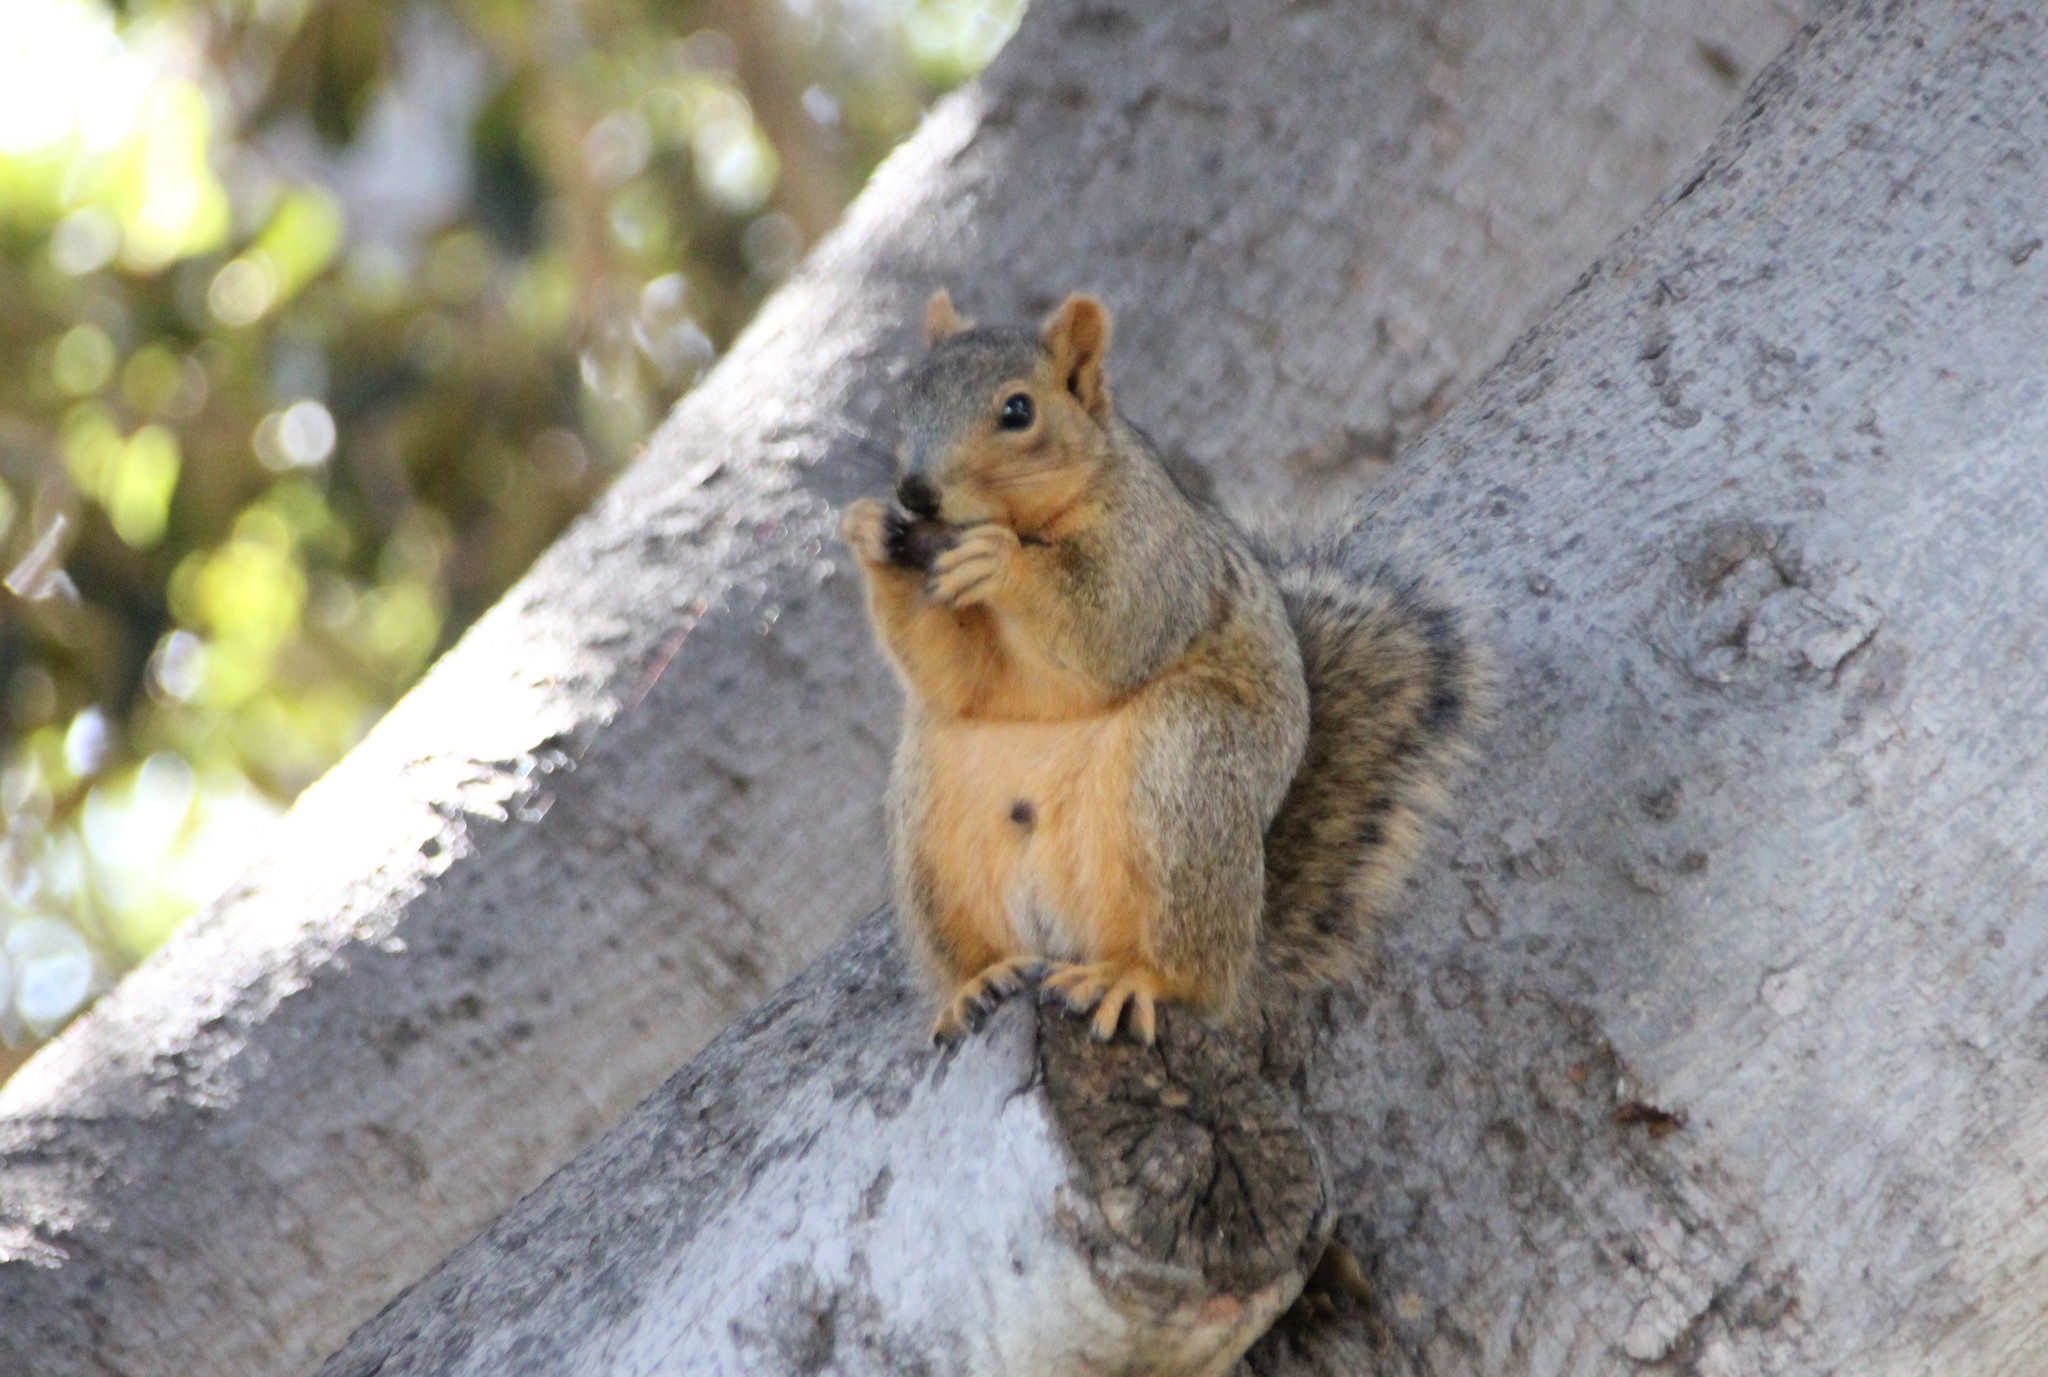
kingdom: Animalia
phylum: Chordata
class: Mammalia
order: Rodentia
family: Sciuridae
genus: Sciurus
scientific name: Sciurus niger
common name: Fox squirrel
